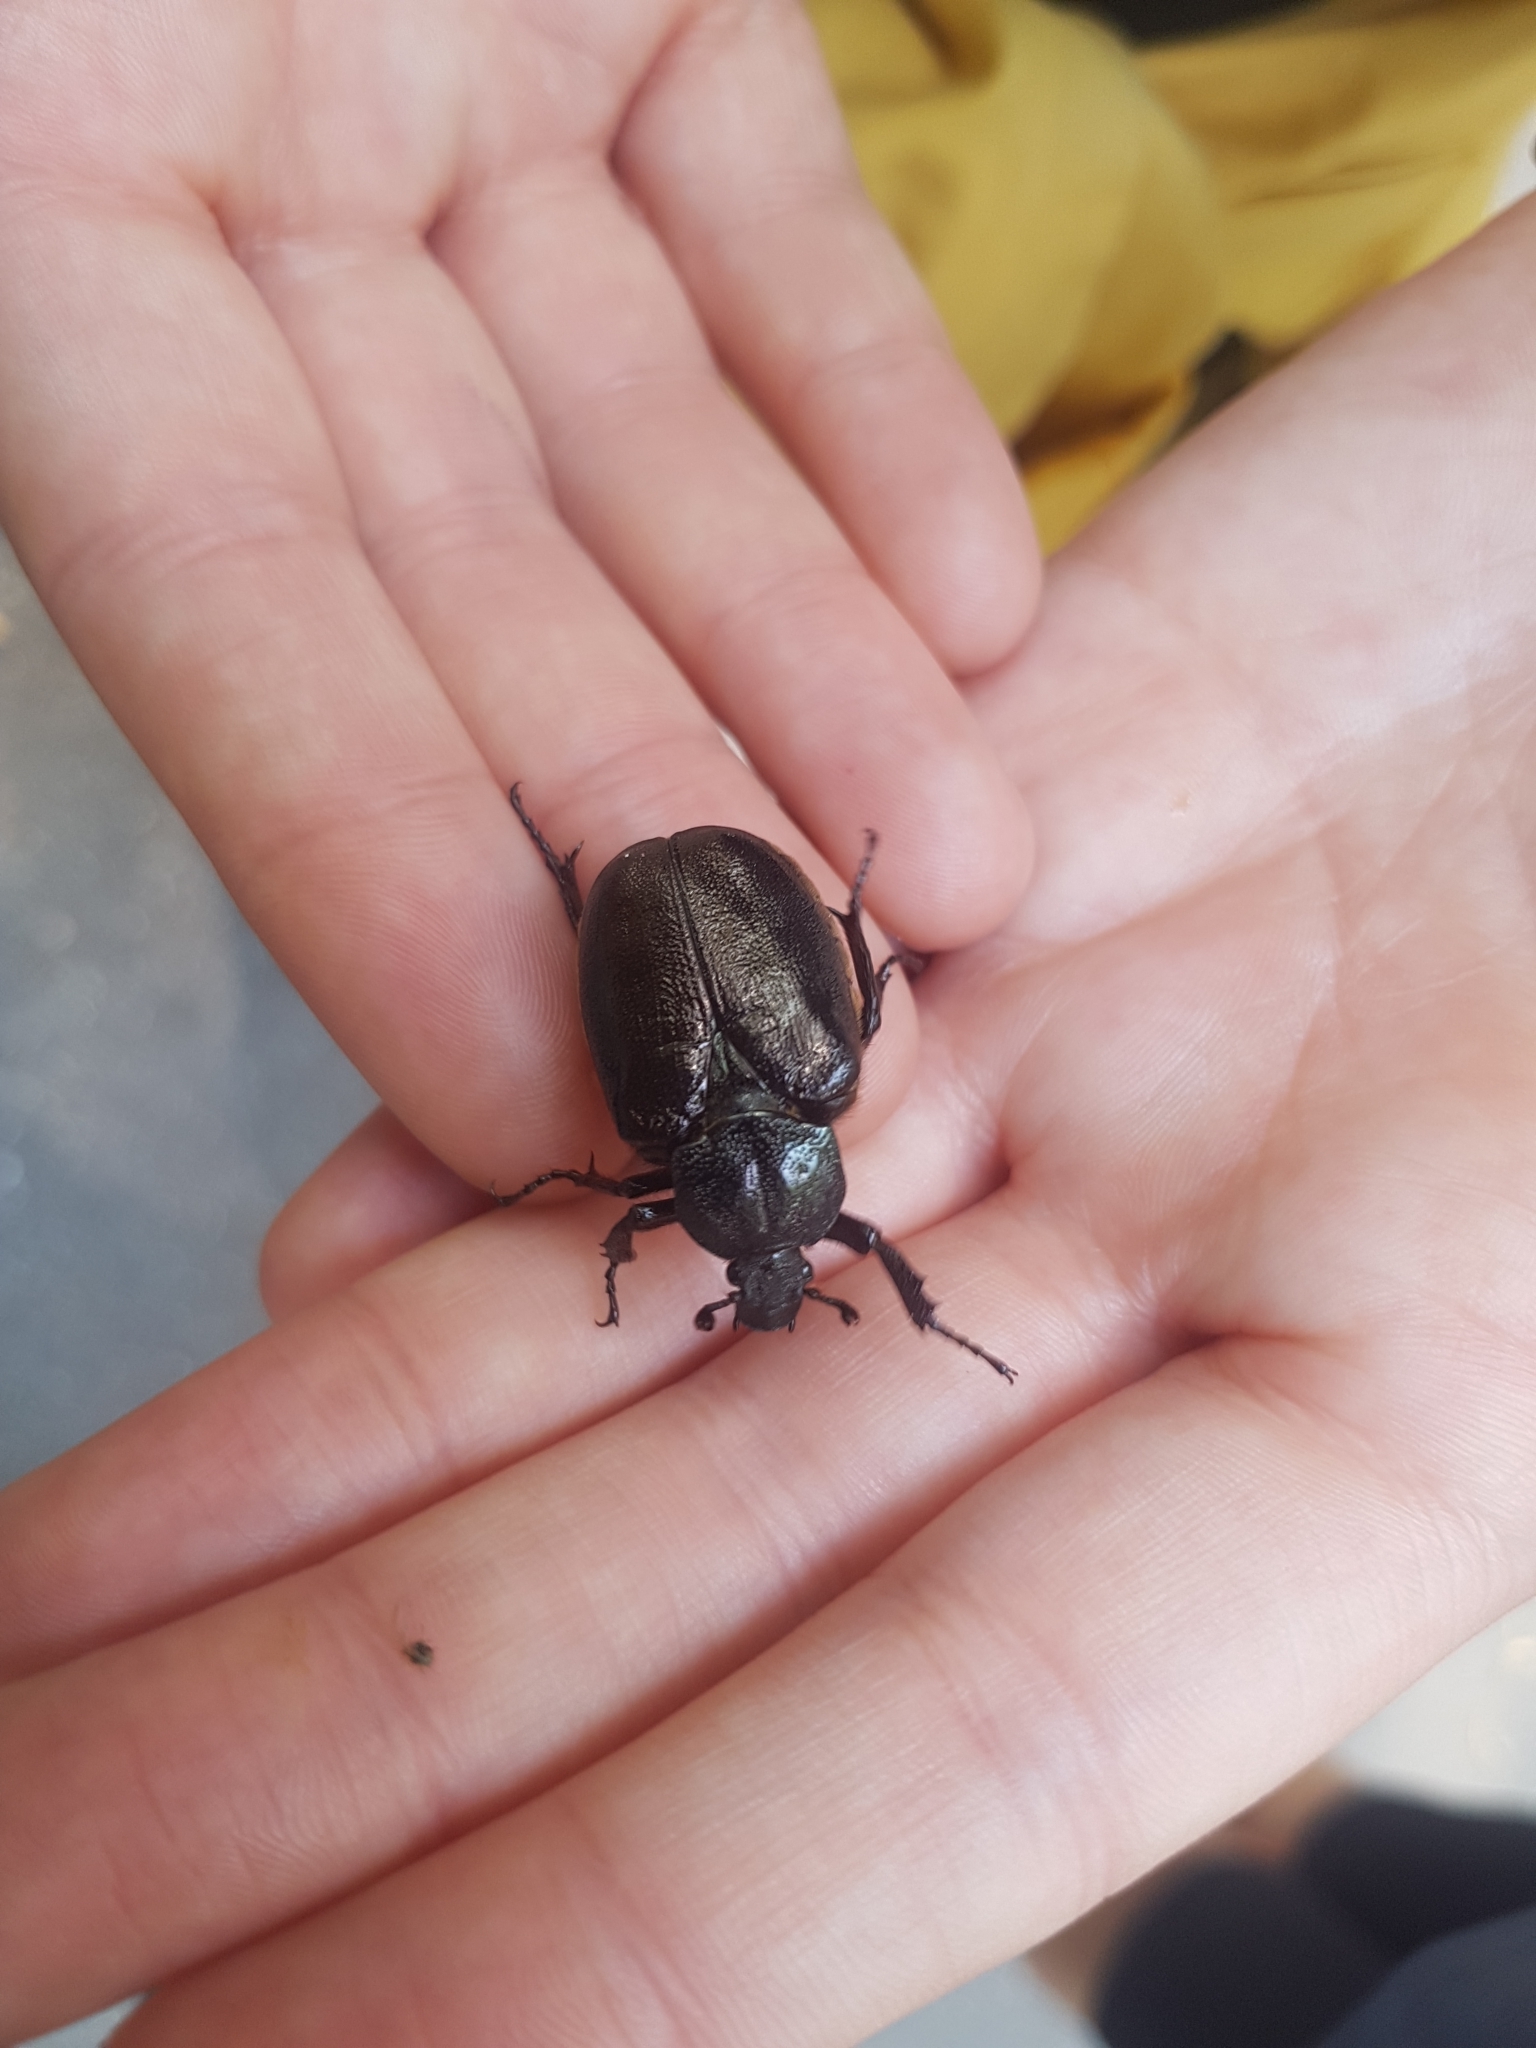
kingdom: Animalia
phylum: Arthropoda
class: Insecta
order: Coleoptera
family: Scarabaeidae
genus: Osmoderma
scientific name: Osmoderma barnabita
